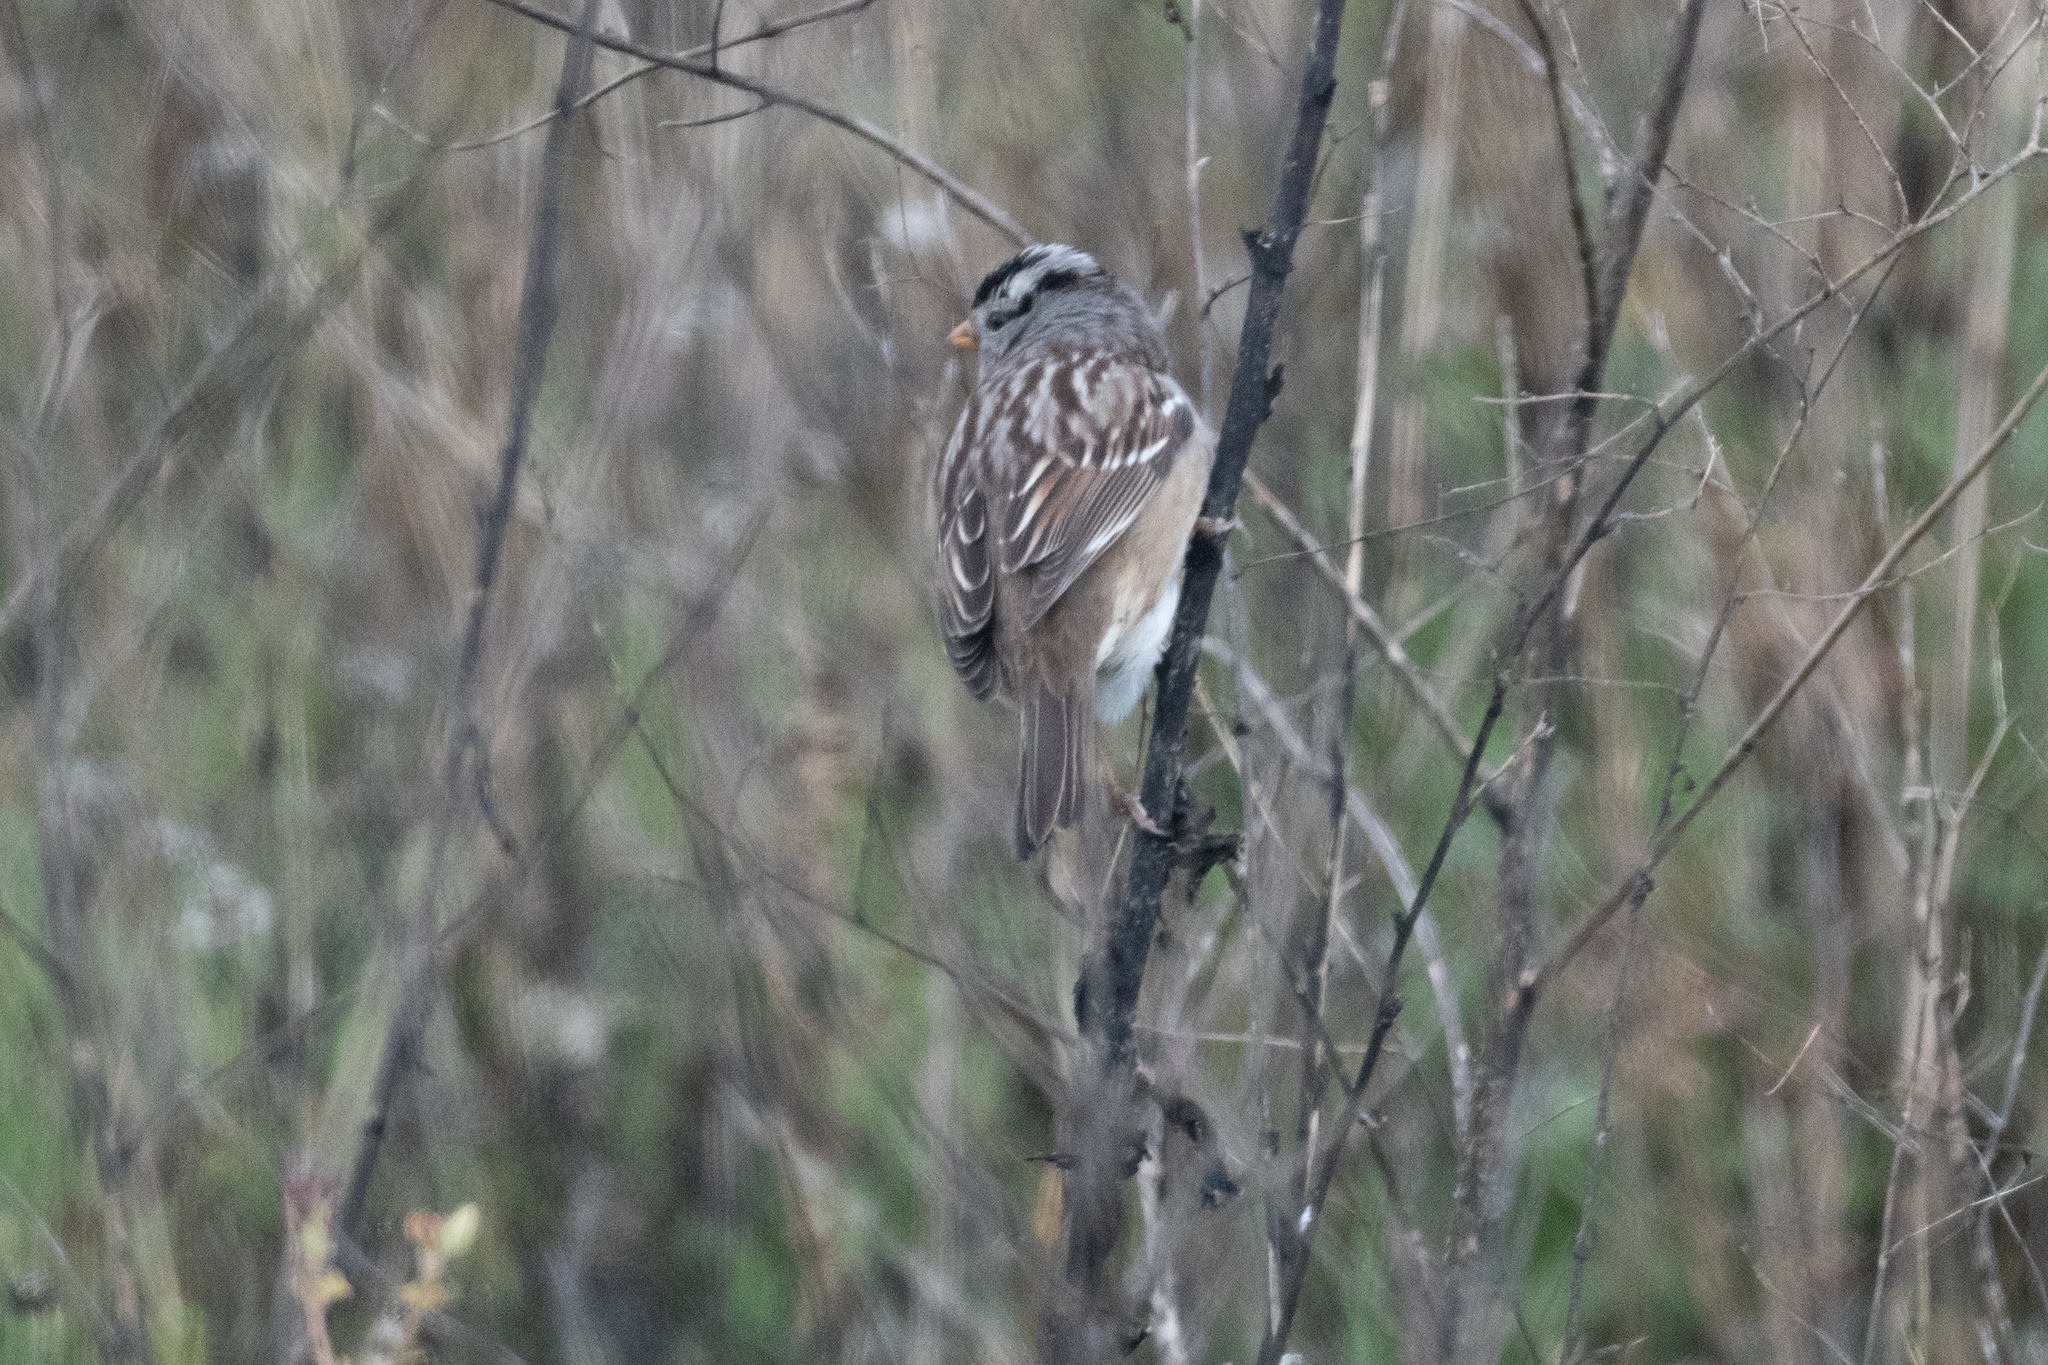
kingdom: Animalia
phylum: Chordata
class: Aves
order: Passeriformes
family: Passerellidae
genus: Zonotrichia
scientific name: Zonotrichia leucophrys
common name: White-crowned sparrow
